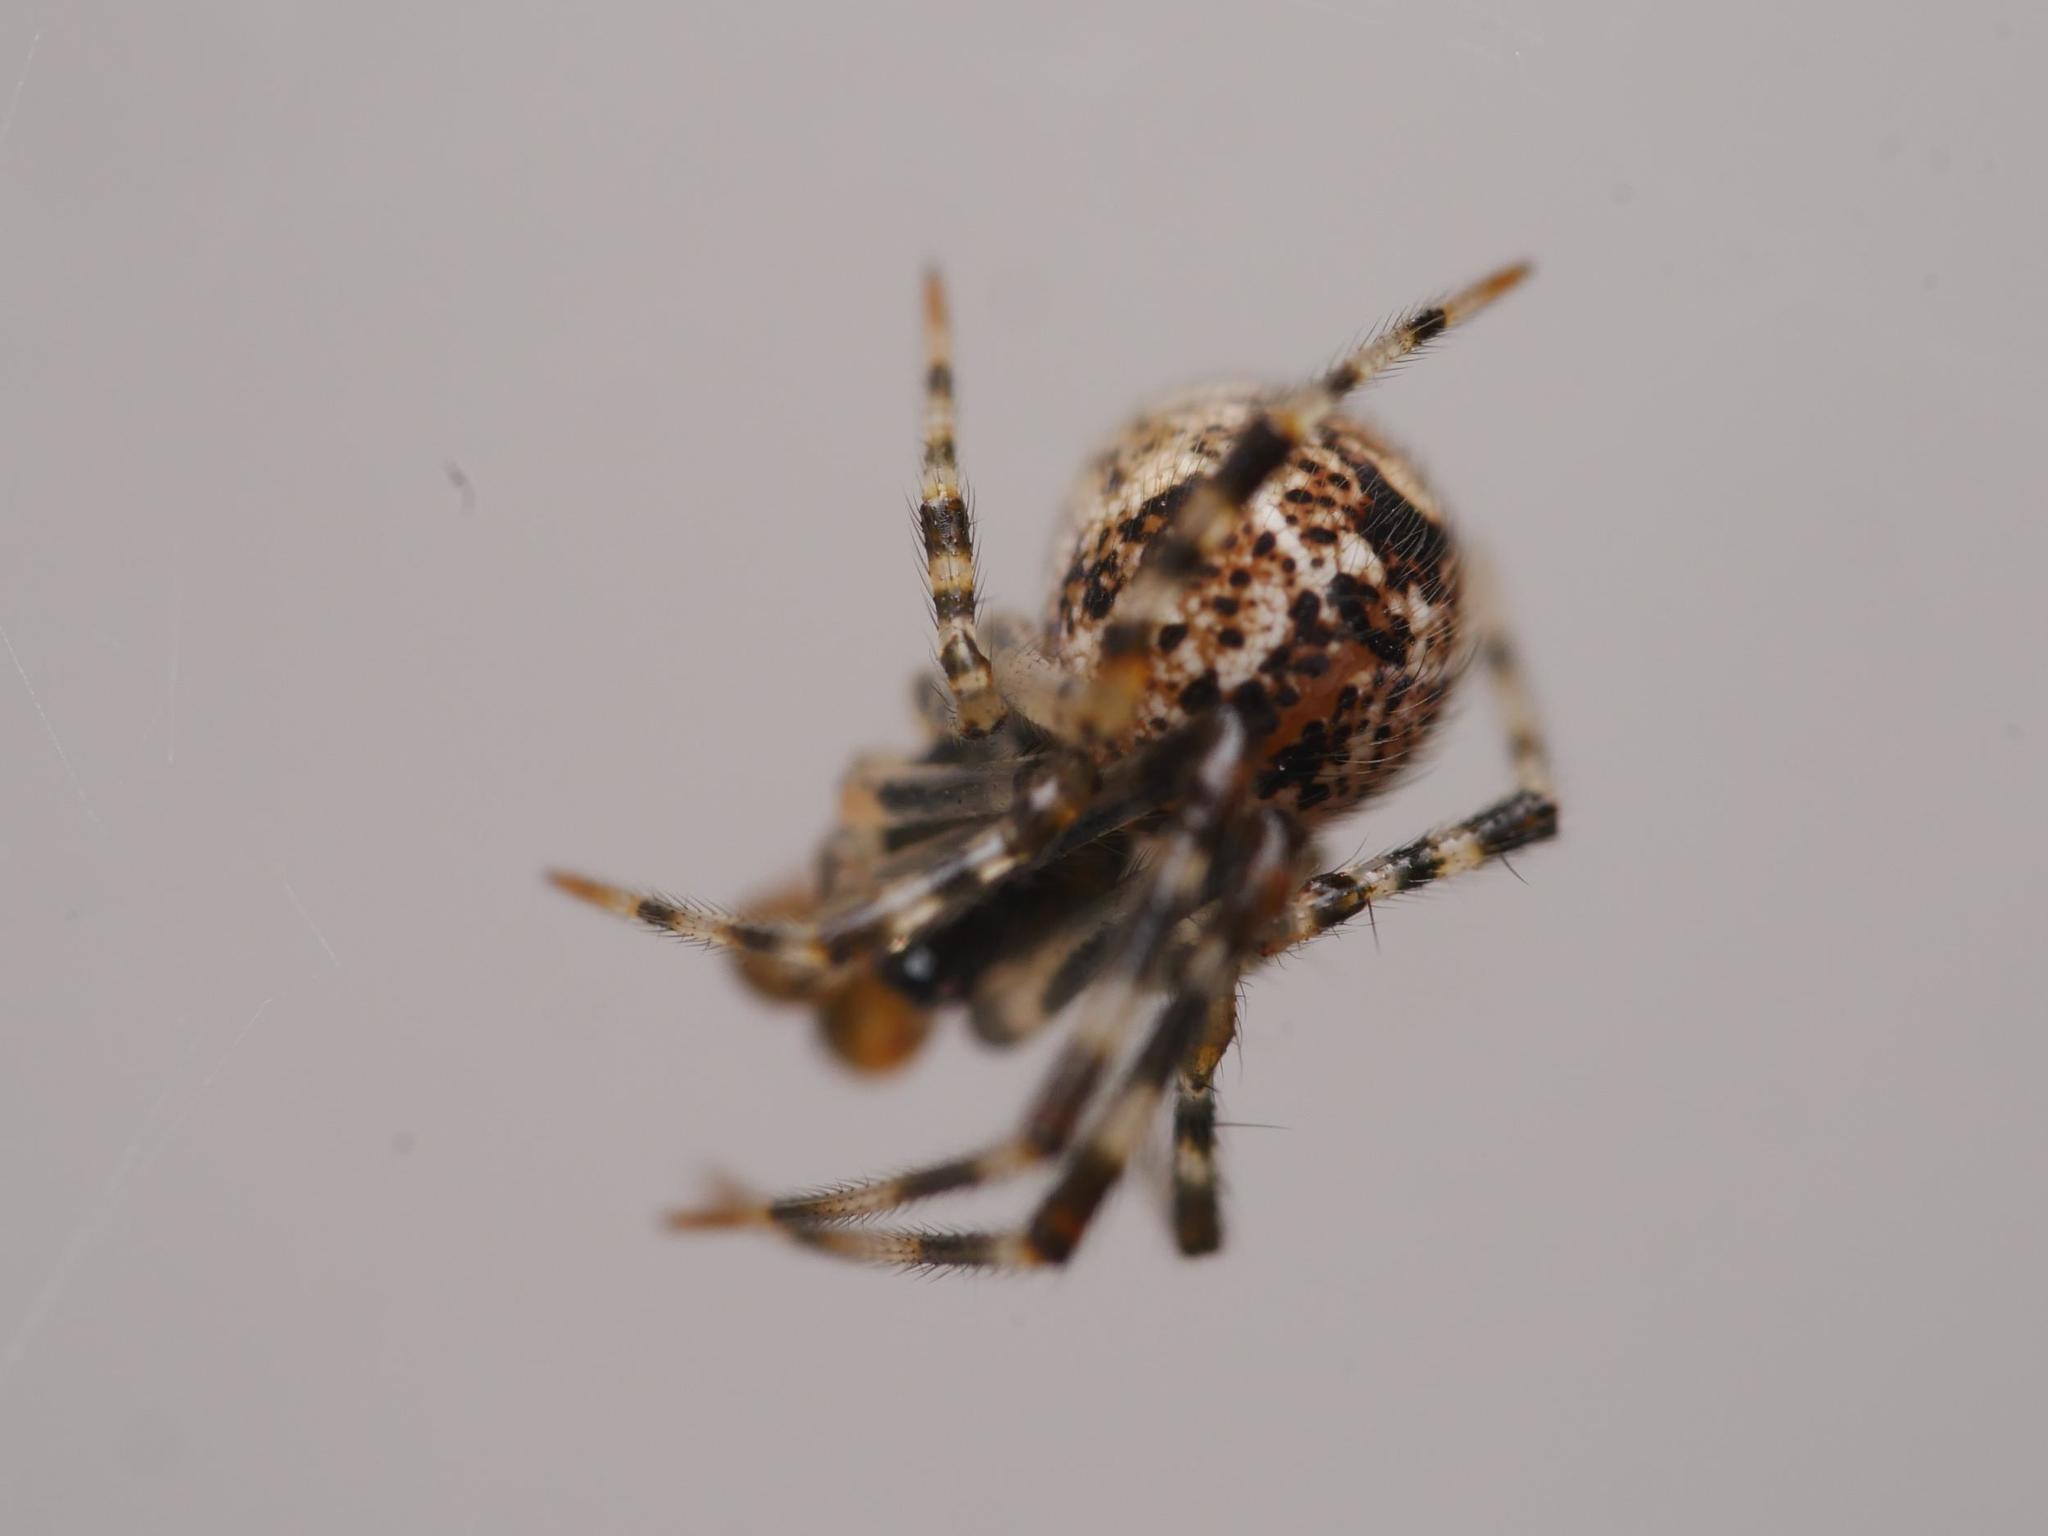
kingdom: Animalia
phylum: Arthropoda
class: Arachnida
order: Araneae
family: Theridiidae
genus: Parasteatoda
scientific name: Parasteatoda tepidariorum
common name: Common house spider
